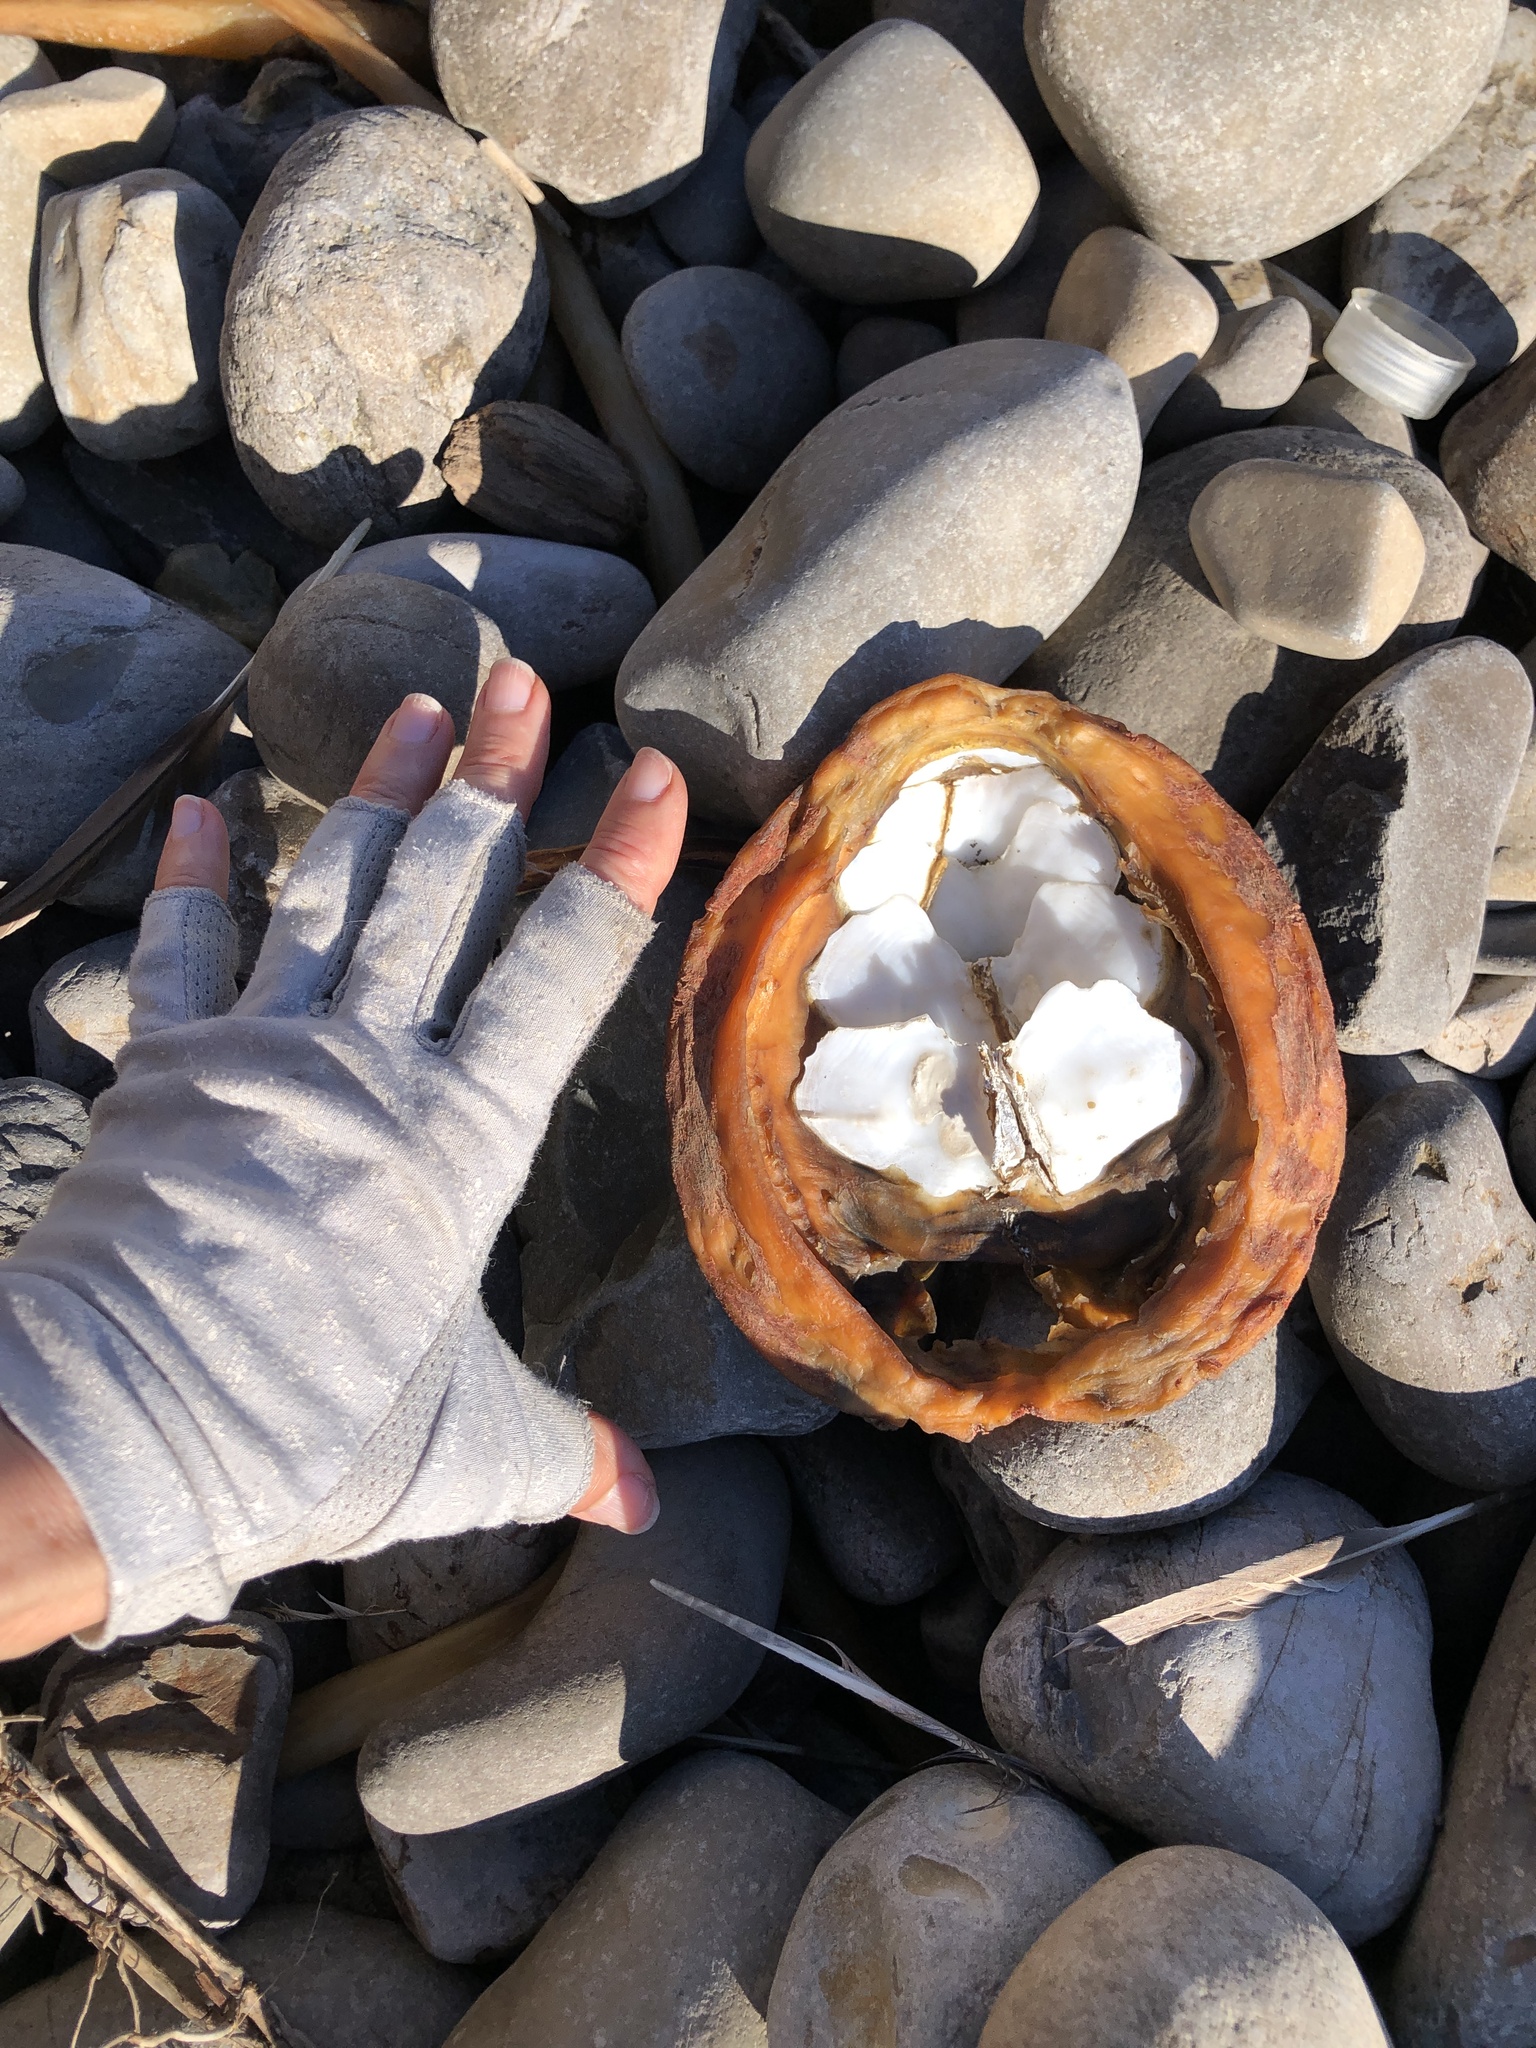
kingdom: Animalia
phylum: Mollusca
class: Polyplacophora
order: Chitonida
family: Acanthochitonidae
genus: Cryptochiton
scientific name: Cryptochiton stelleri
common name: Giant pacific chiton
